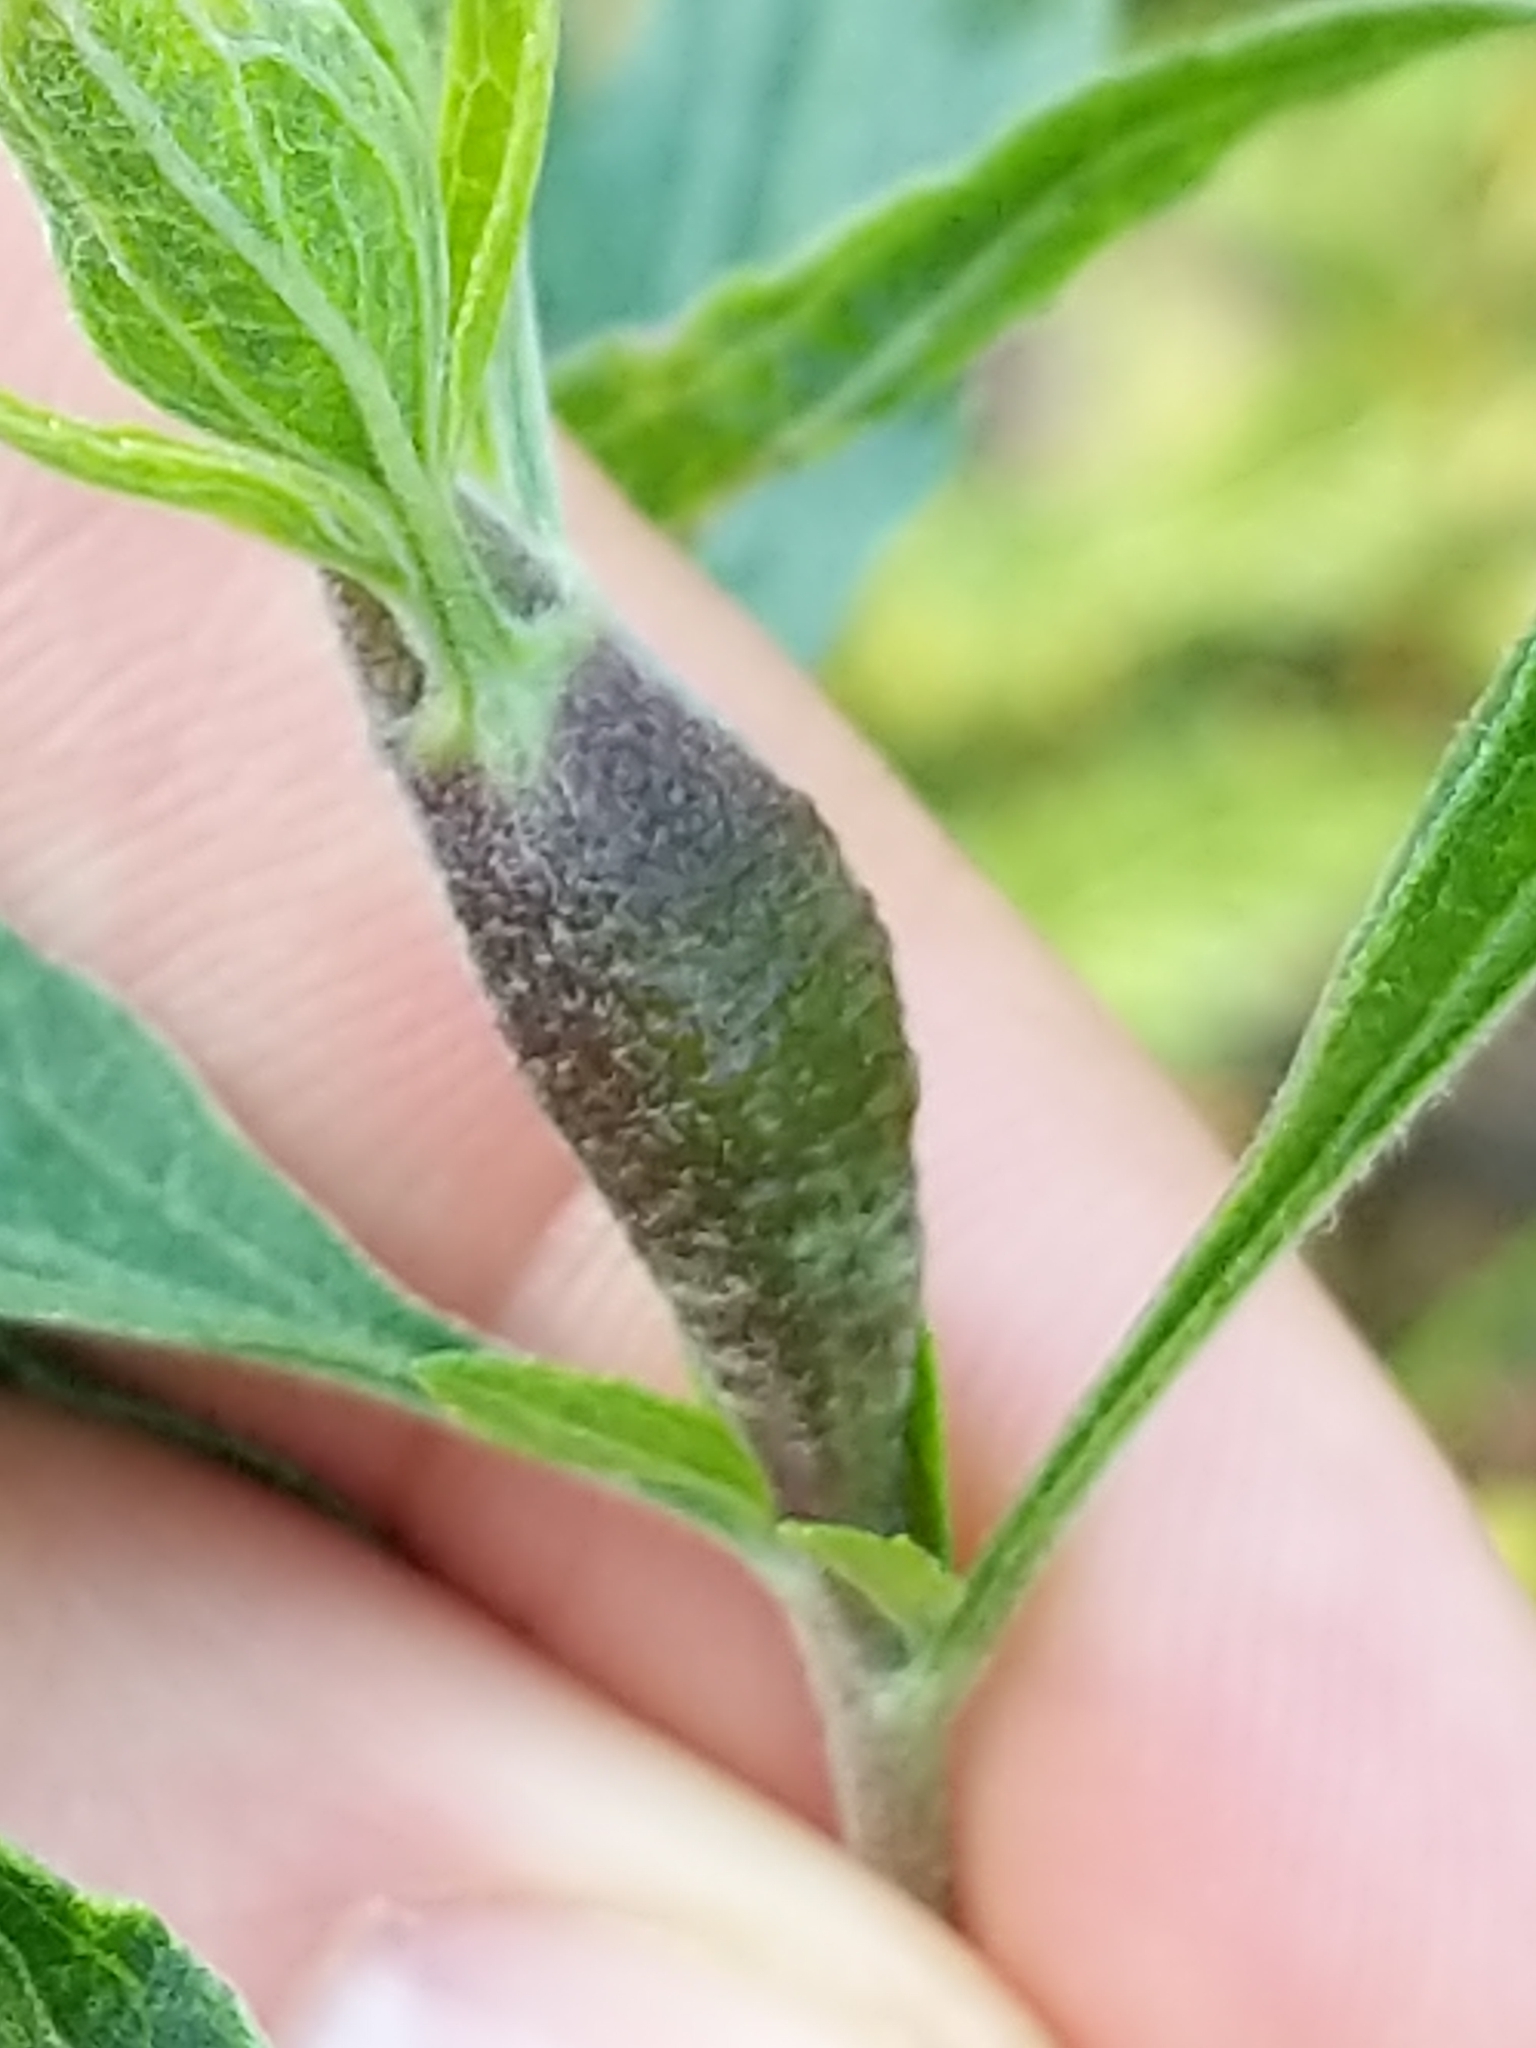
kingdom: Animalia
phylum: Arthropoda
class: Insecta
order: Diptera
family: Cecidomyiidae
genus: Neolasioptera
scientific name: Neolasioptera perfoliata
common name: Boneset stem midge
